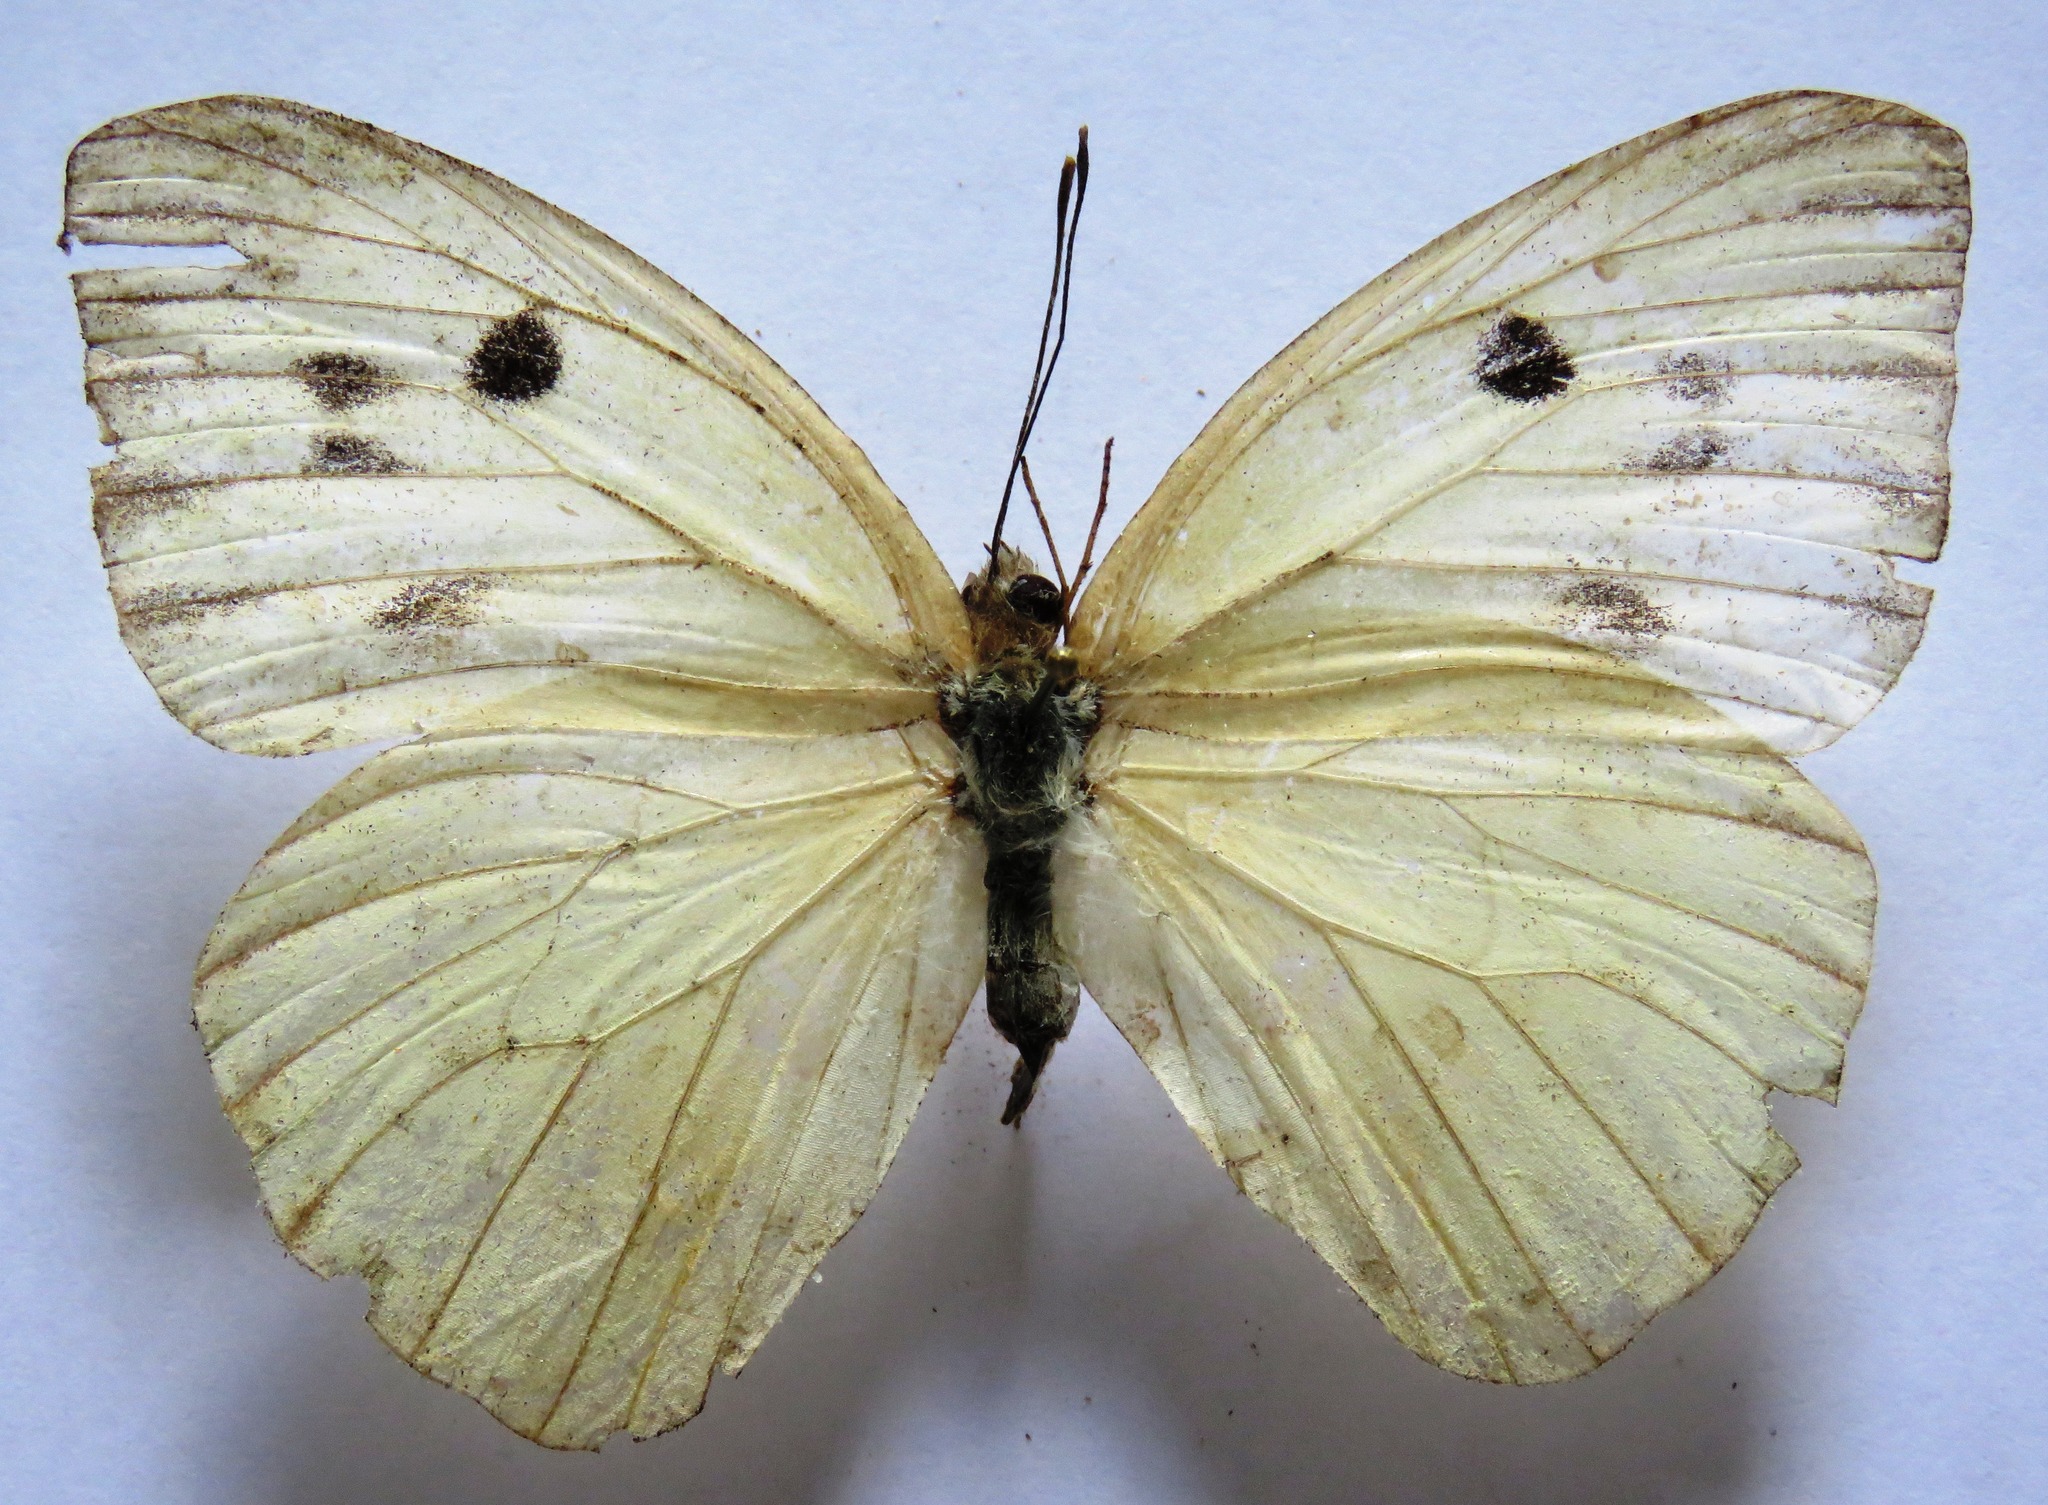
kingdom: Animalia
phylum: Arthropoda
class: Insecta
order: Lepidoptera
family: Pieridae
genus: Ganyra
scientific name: Ganyra josephina
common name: Giant white
